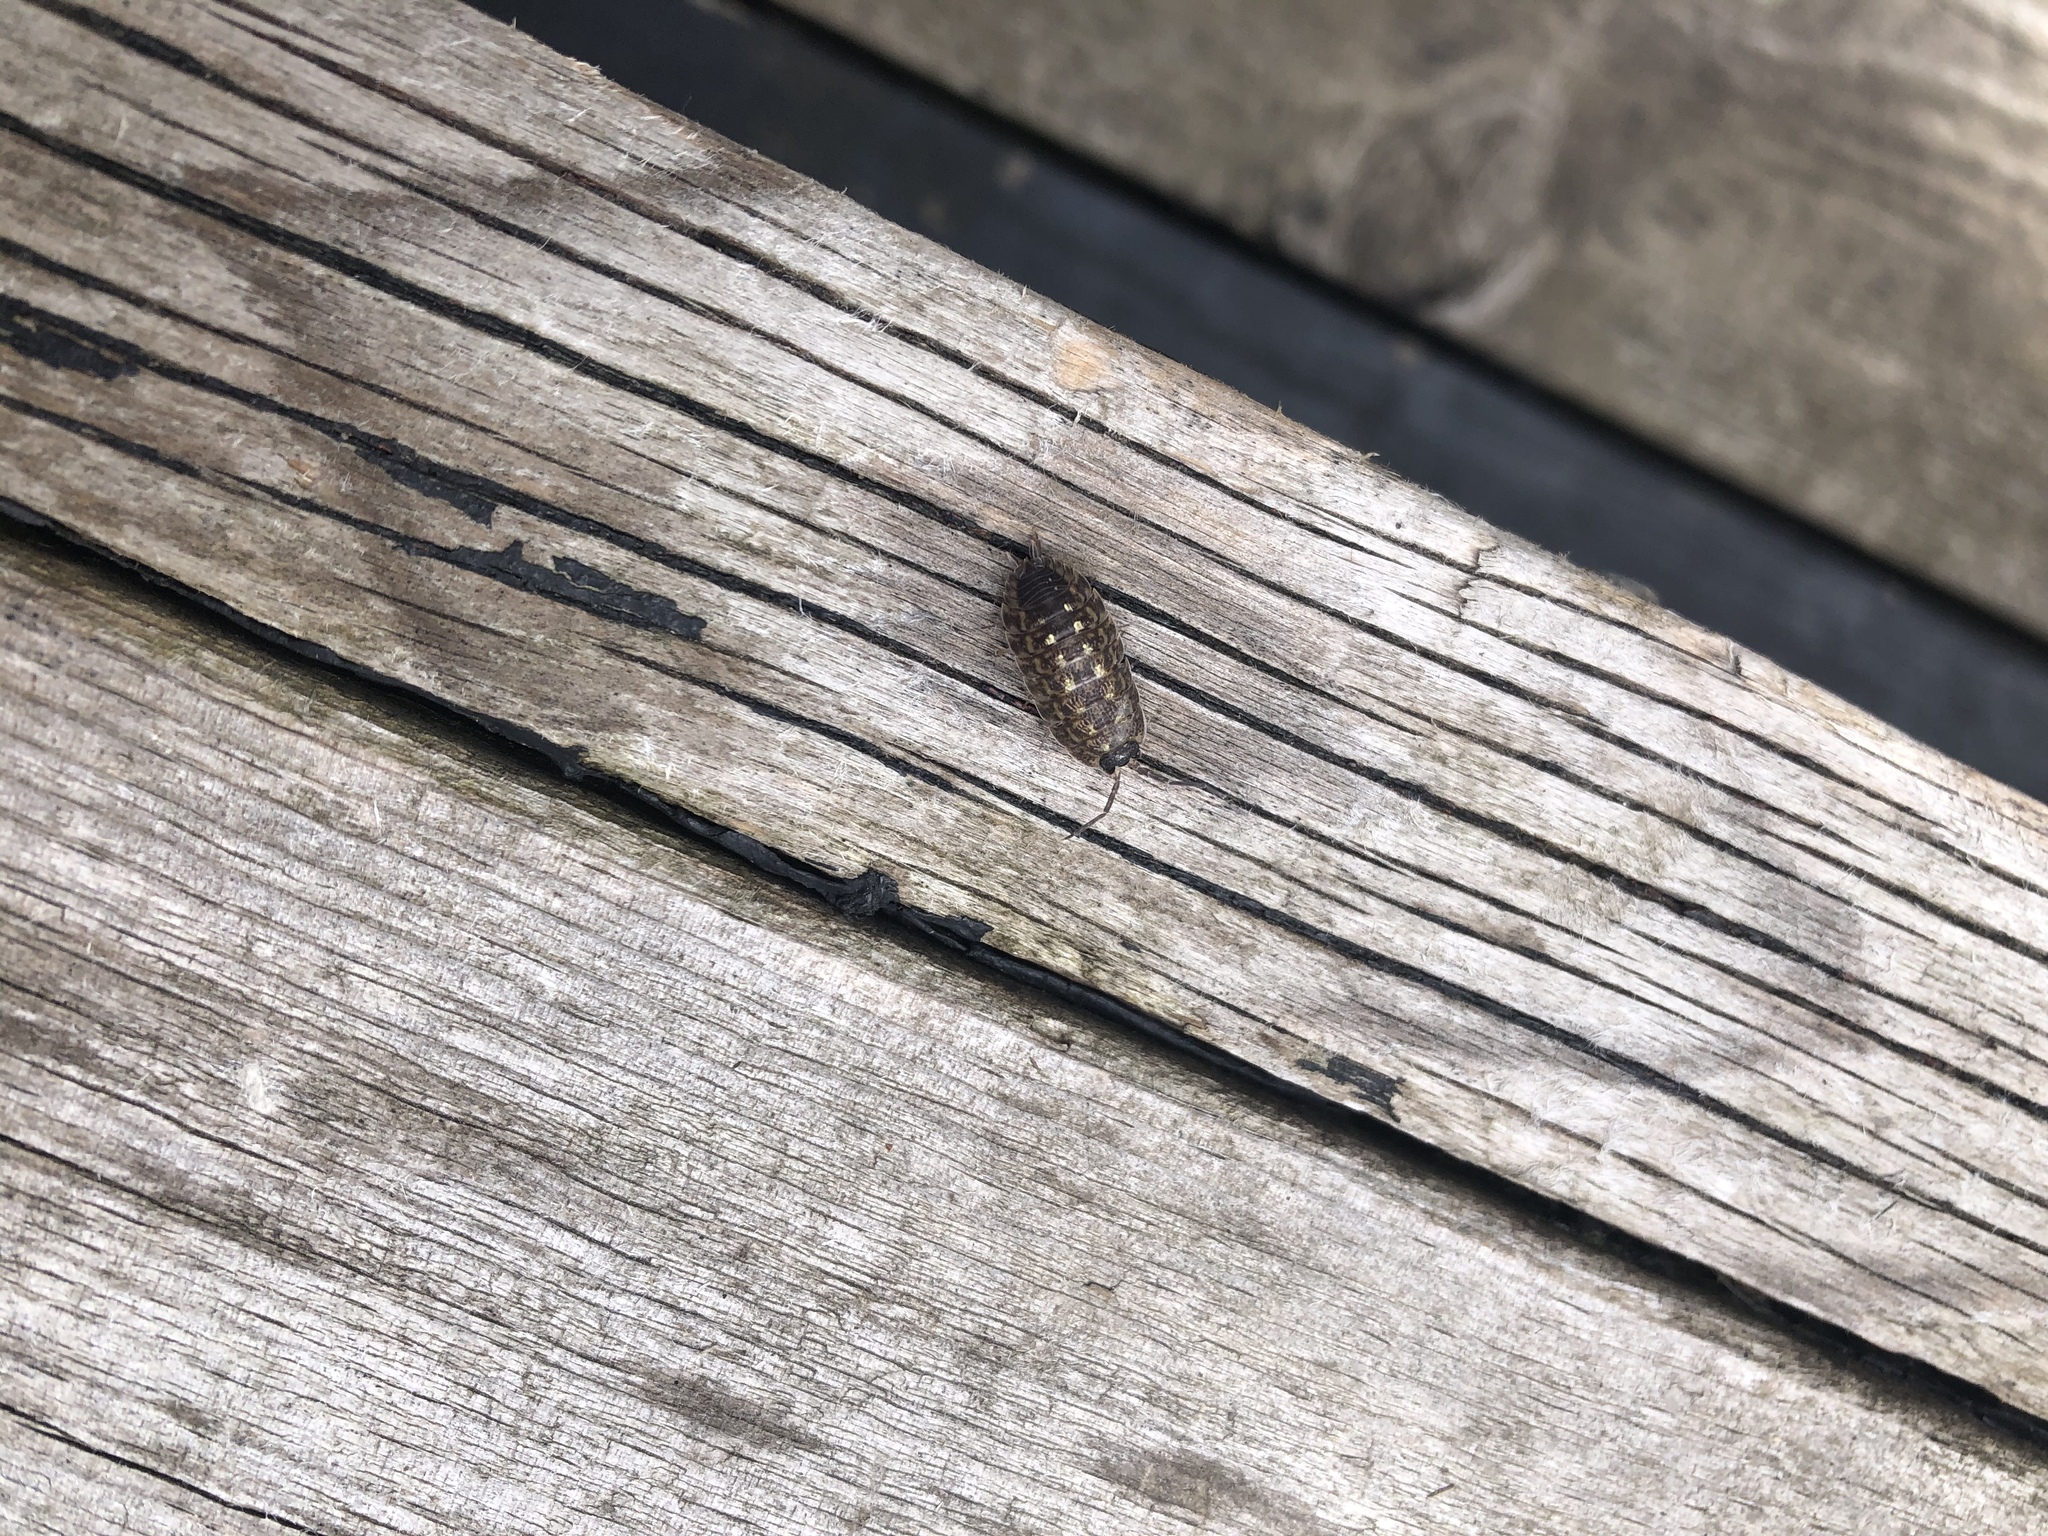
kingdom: Animalia
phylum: Arthropoda
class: Malacostraca
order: Isopoda
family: Porcellionidae
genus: Porcellio
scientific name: Porcellio spinicornis
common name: Painted woodlouse
